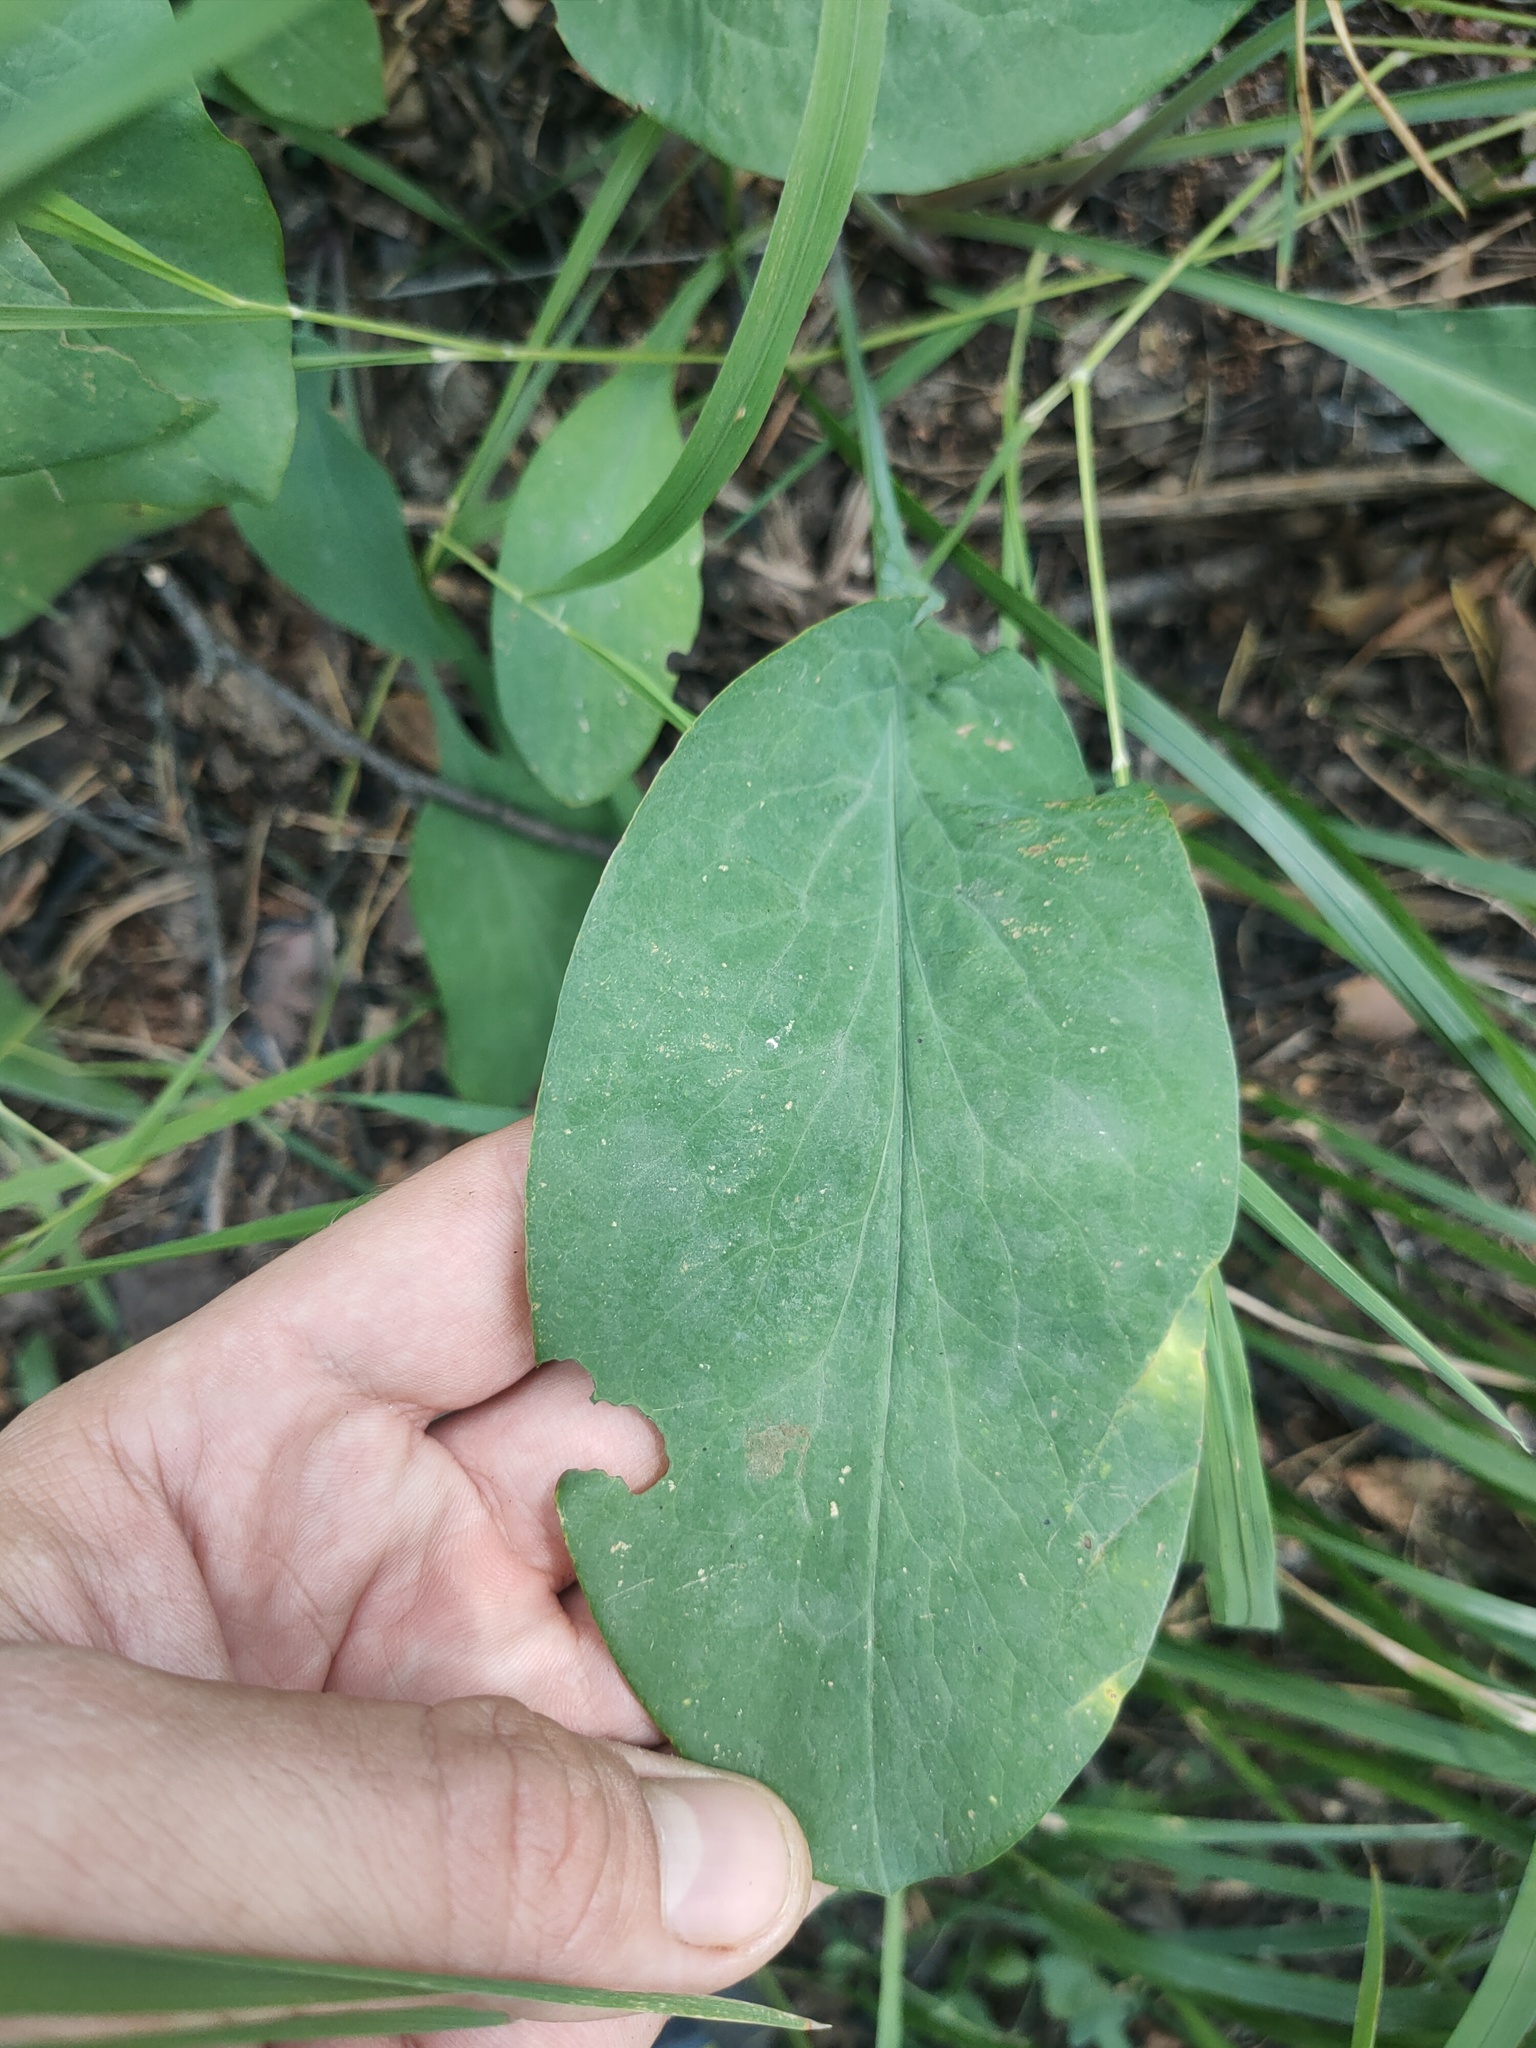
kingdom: Plantae
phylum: Tracheophyta
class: Magnoliopsida
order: Apiales
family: Apiaceae
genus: Bupleurum
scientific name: Bupleurum aureum
